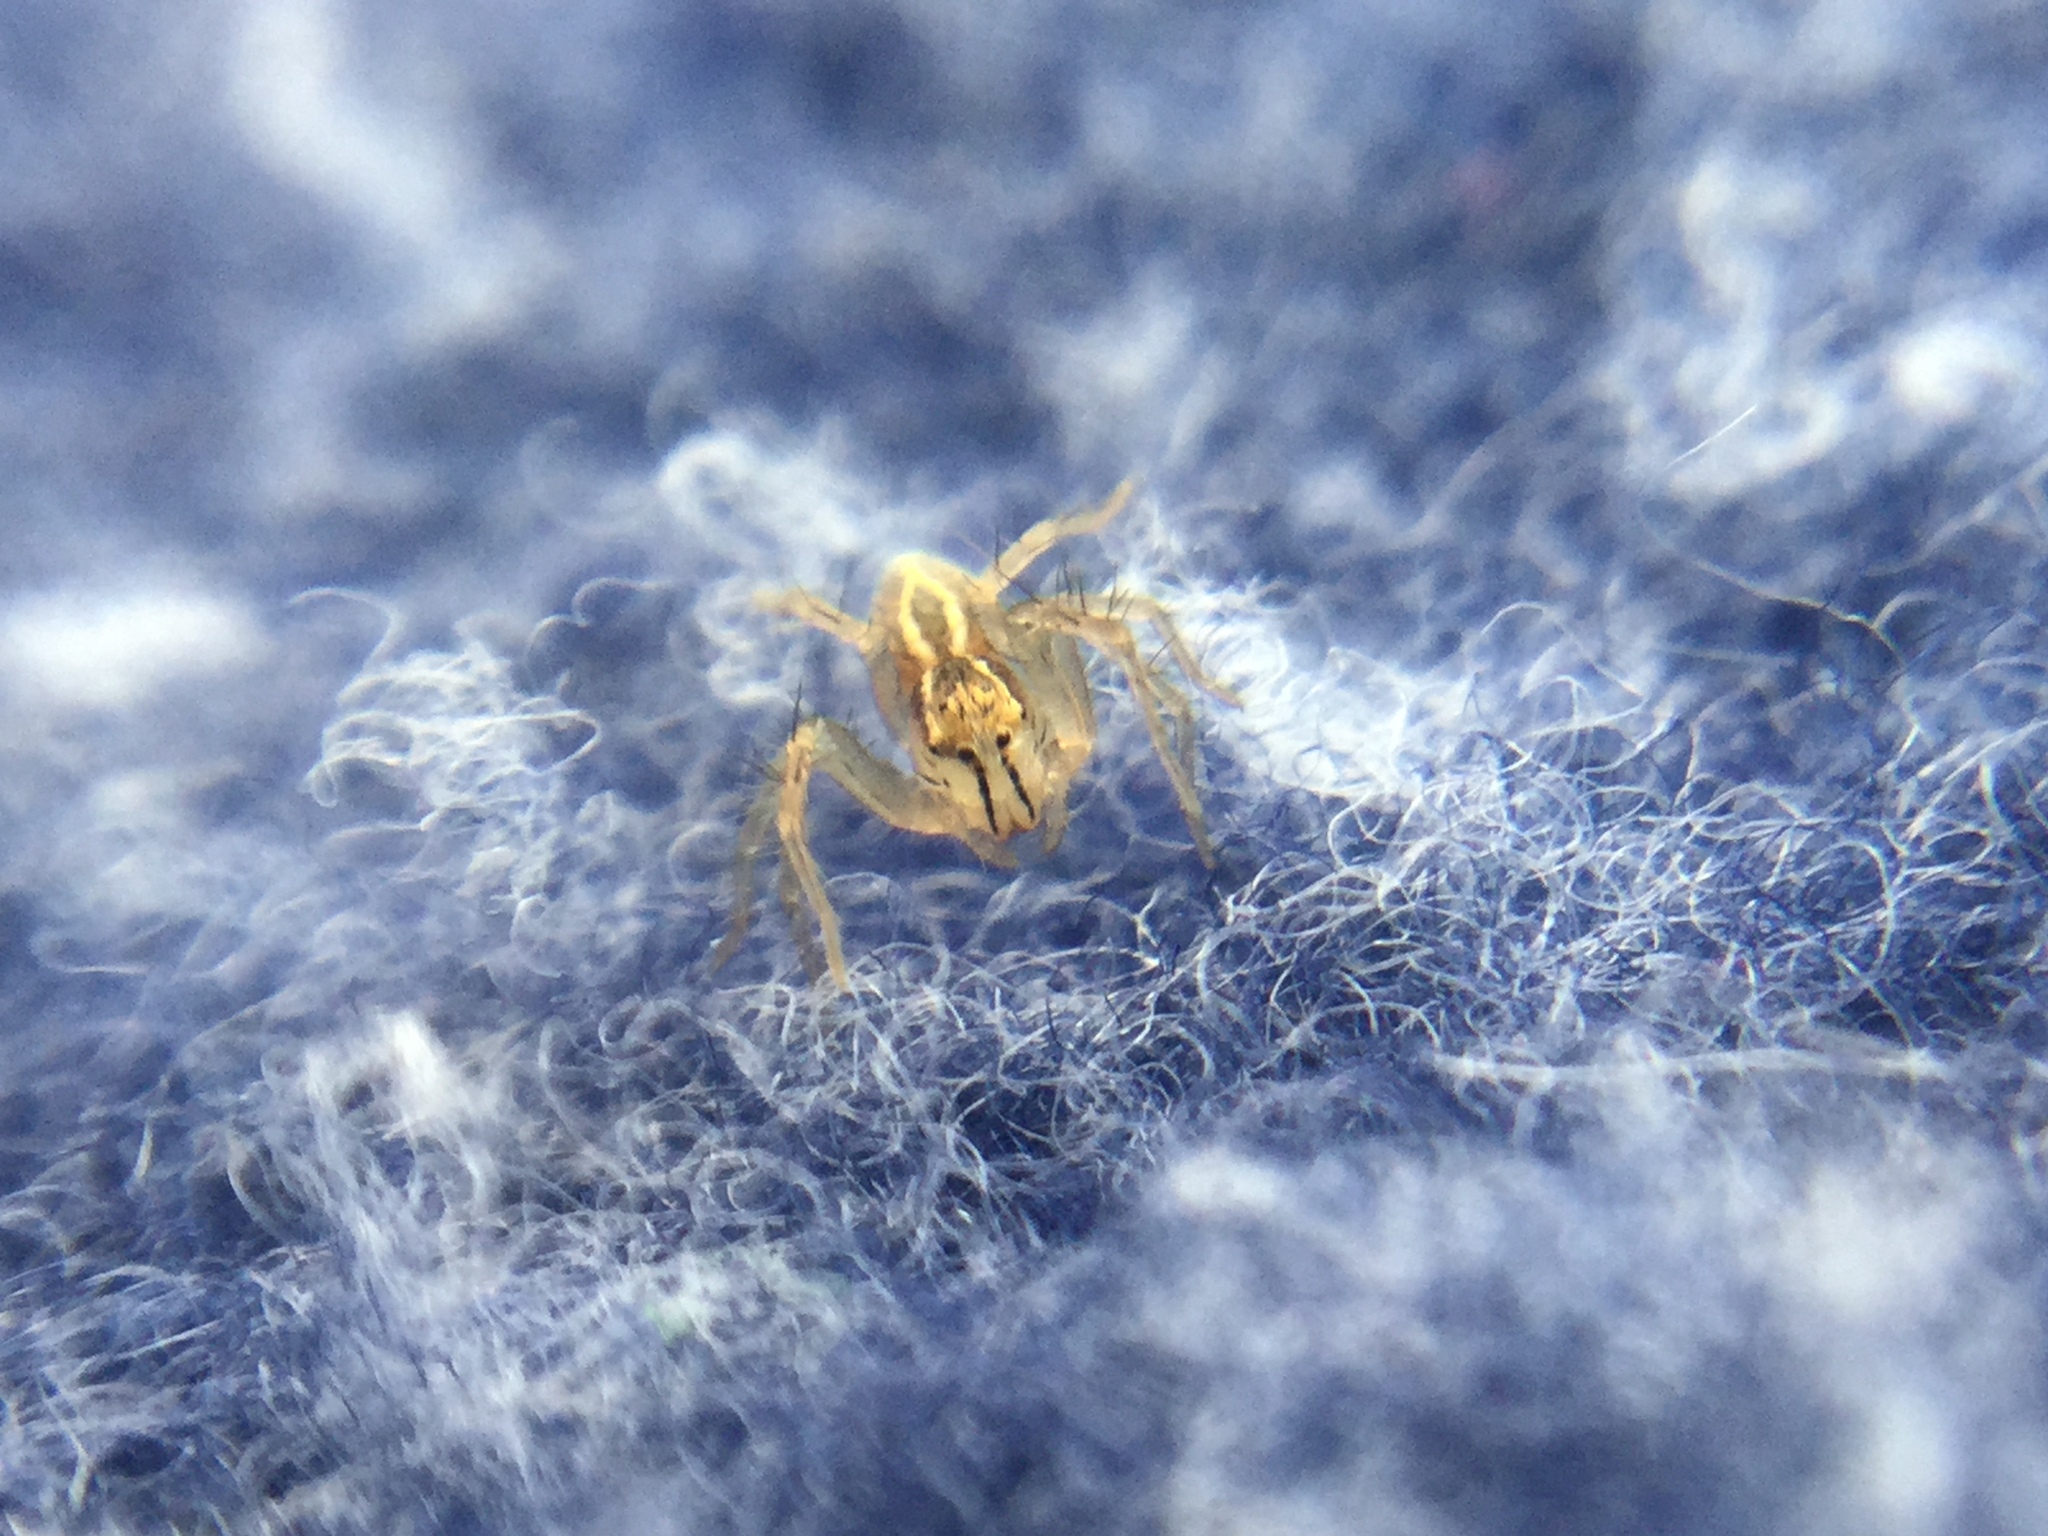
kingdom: Animalia
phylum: Arthropoda
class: Arachnida
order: Araneae
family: Oxyopidae
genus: Oxyopes
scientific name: Oxyopes salticus
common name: Lynx spiders
